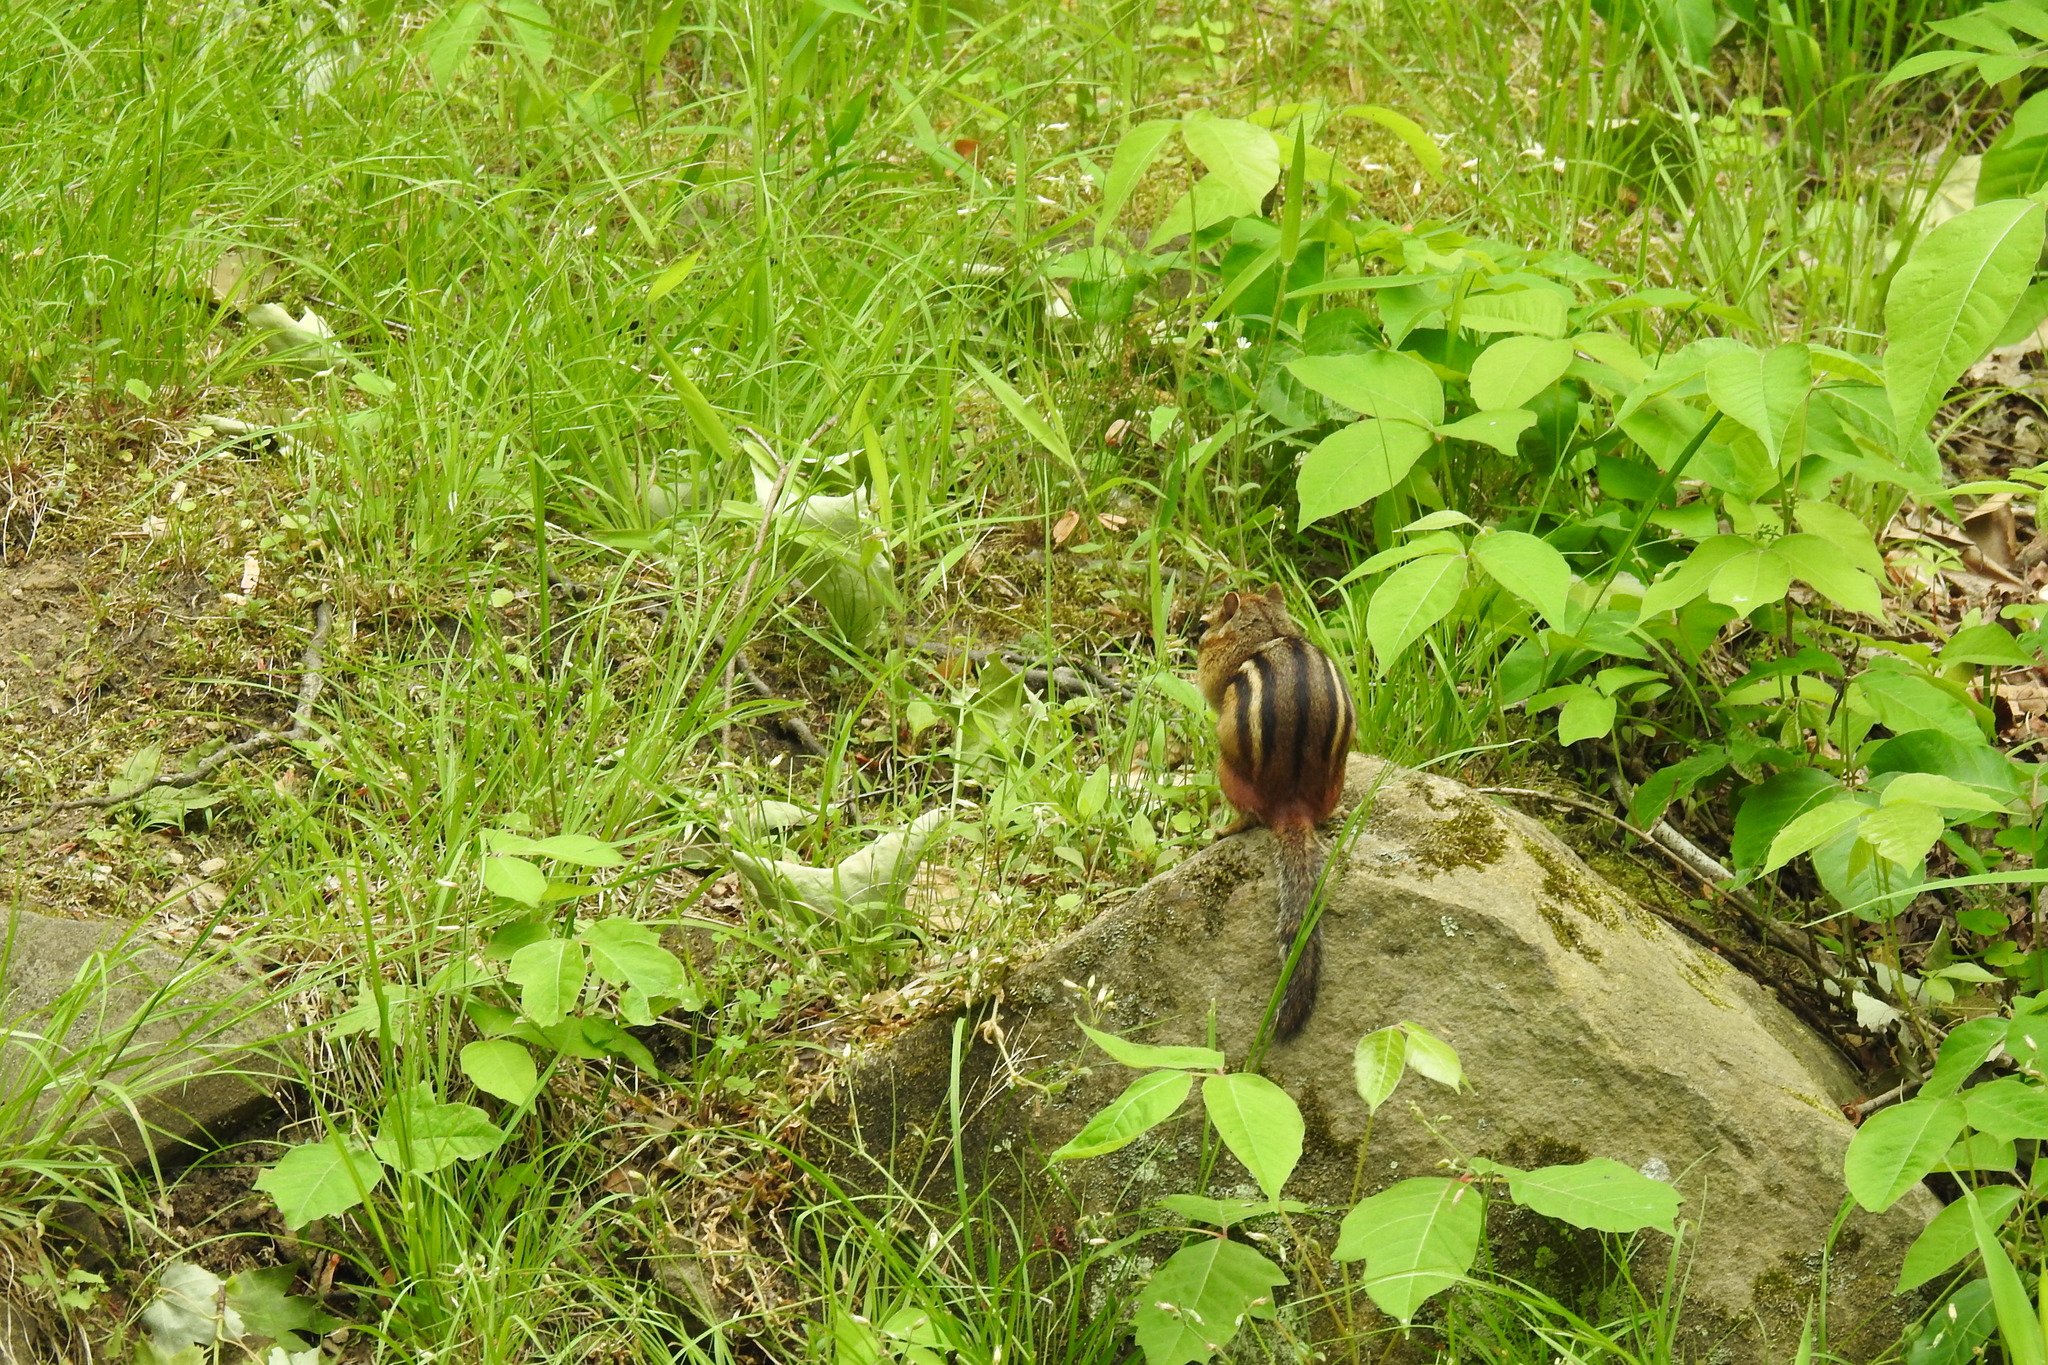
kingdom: Animalia
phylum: Chordata
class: Mammalia
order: Rodentia
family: Sciuridae
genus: Tamias
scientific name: Tamias striatus
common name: Eastern chipmunk
